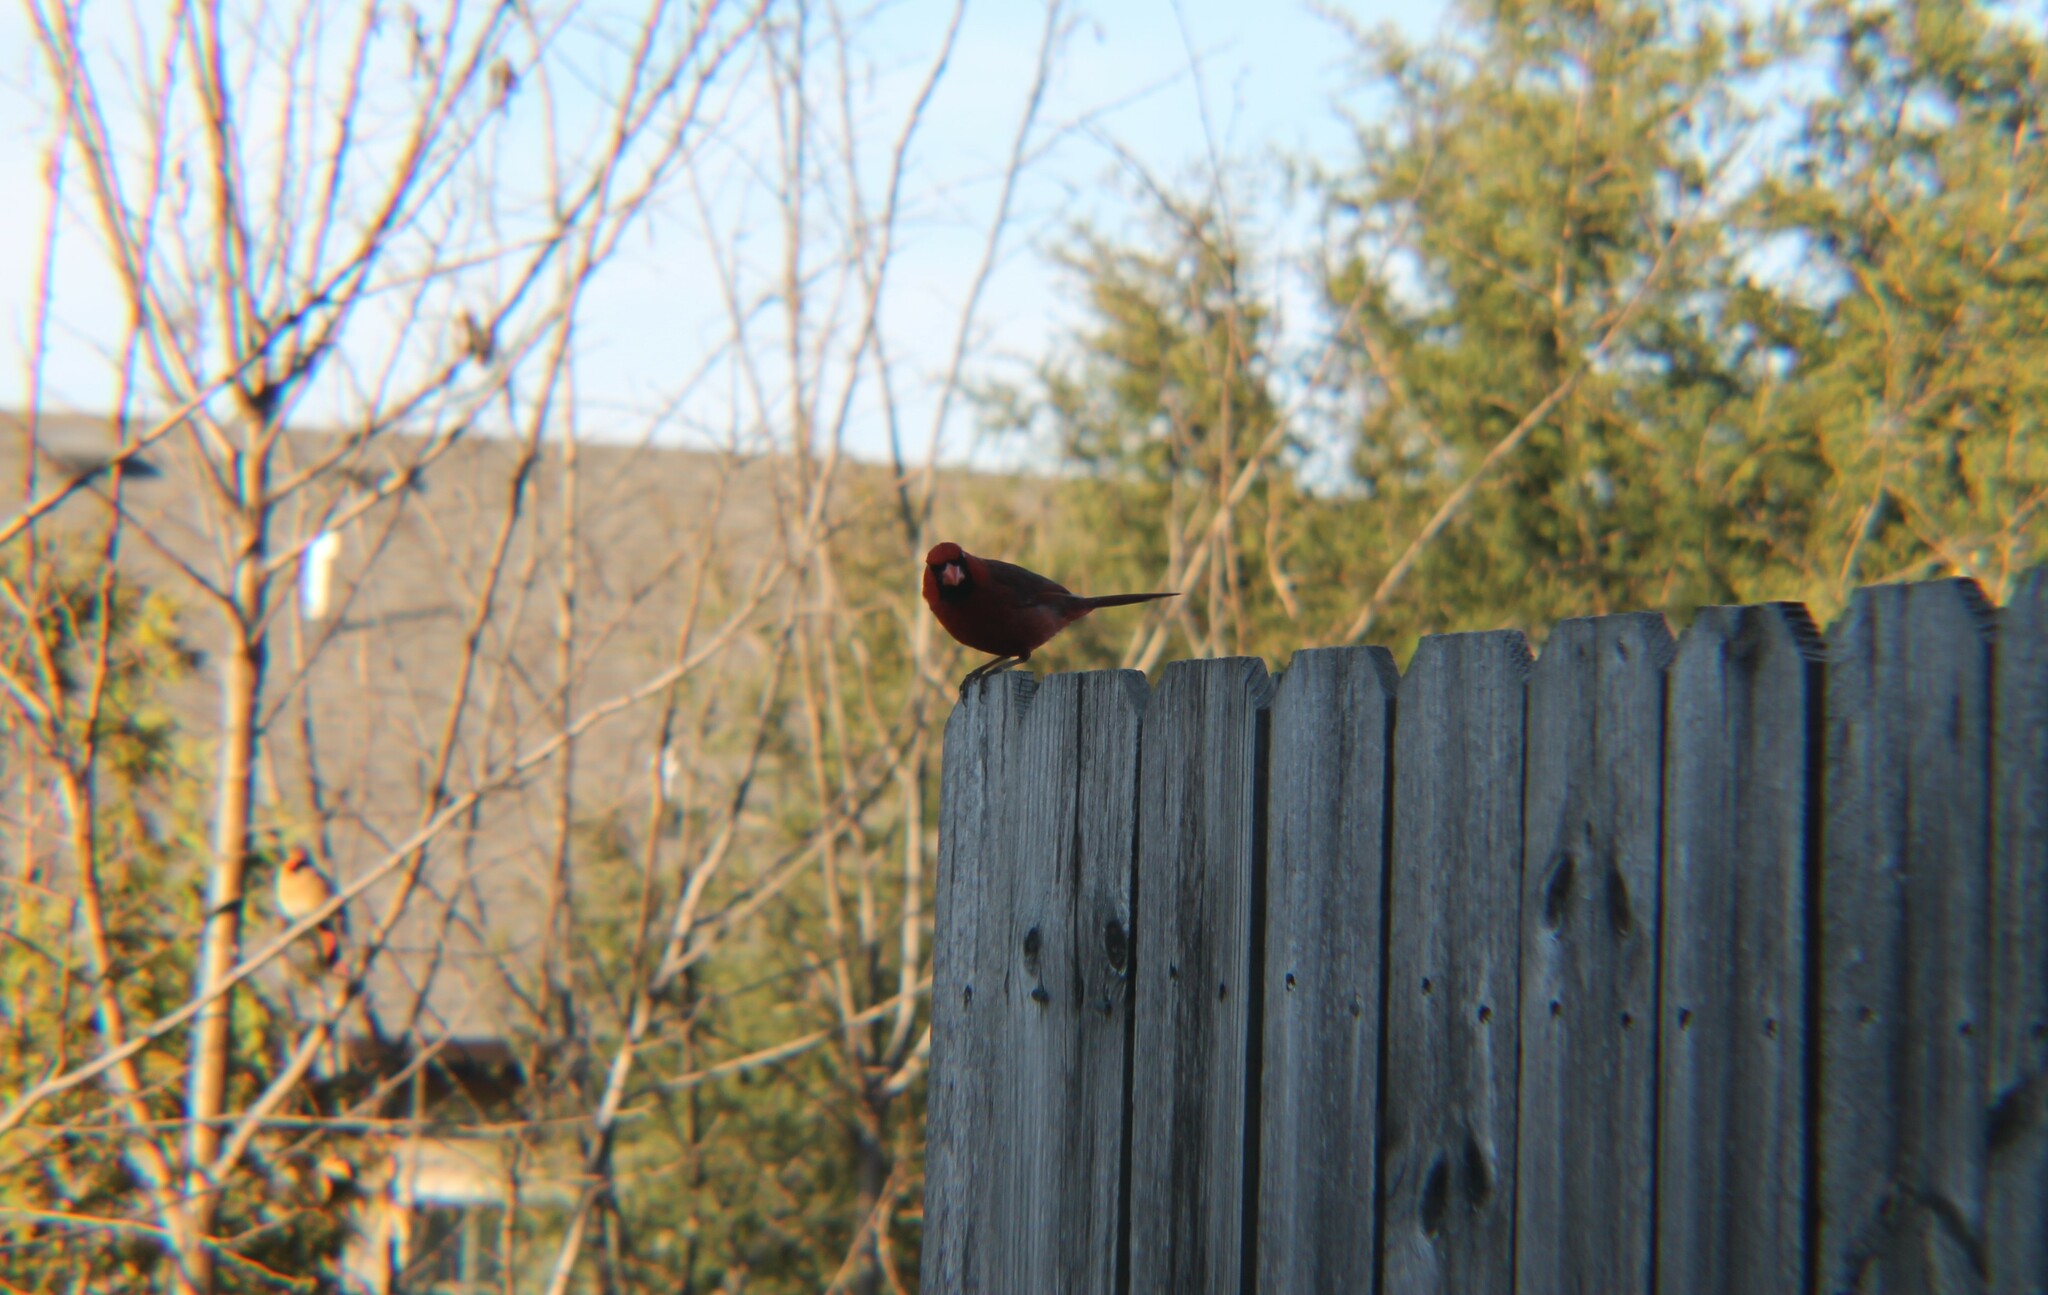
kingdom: Animalia
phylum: Chordata
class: Aves
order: Passeriformes
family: Cardinalidae
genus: Cardinalis
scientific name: Cardinalis cardinalis
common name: Northern cardinal
